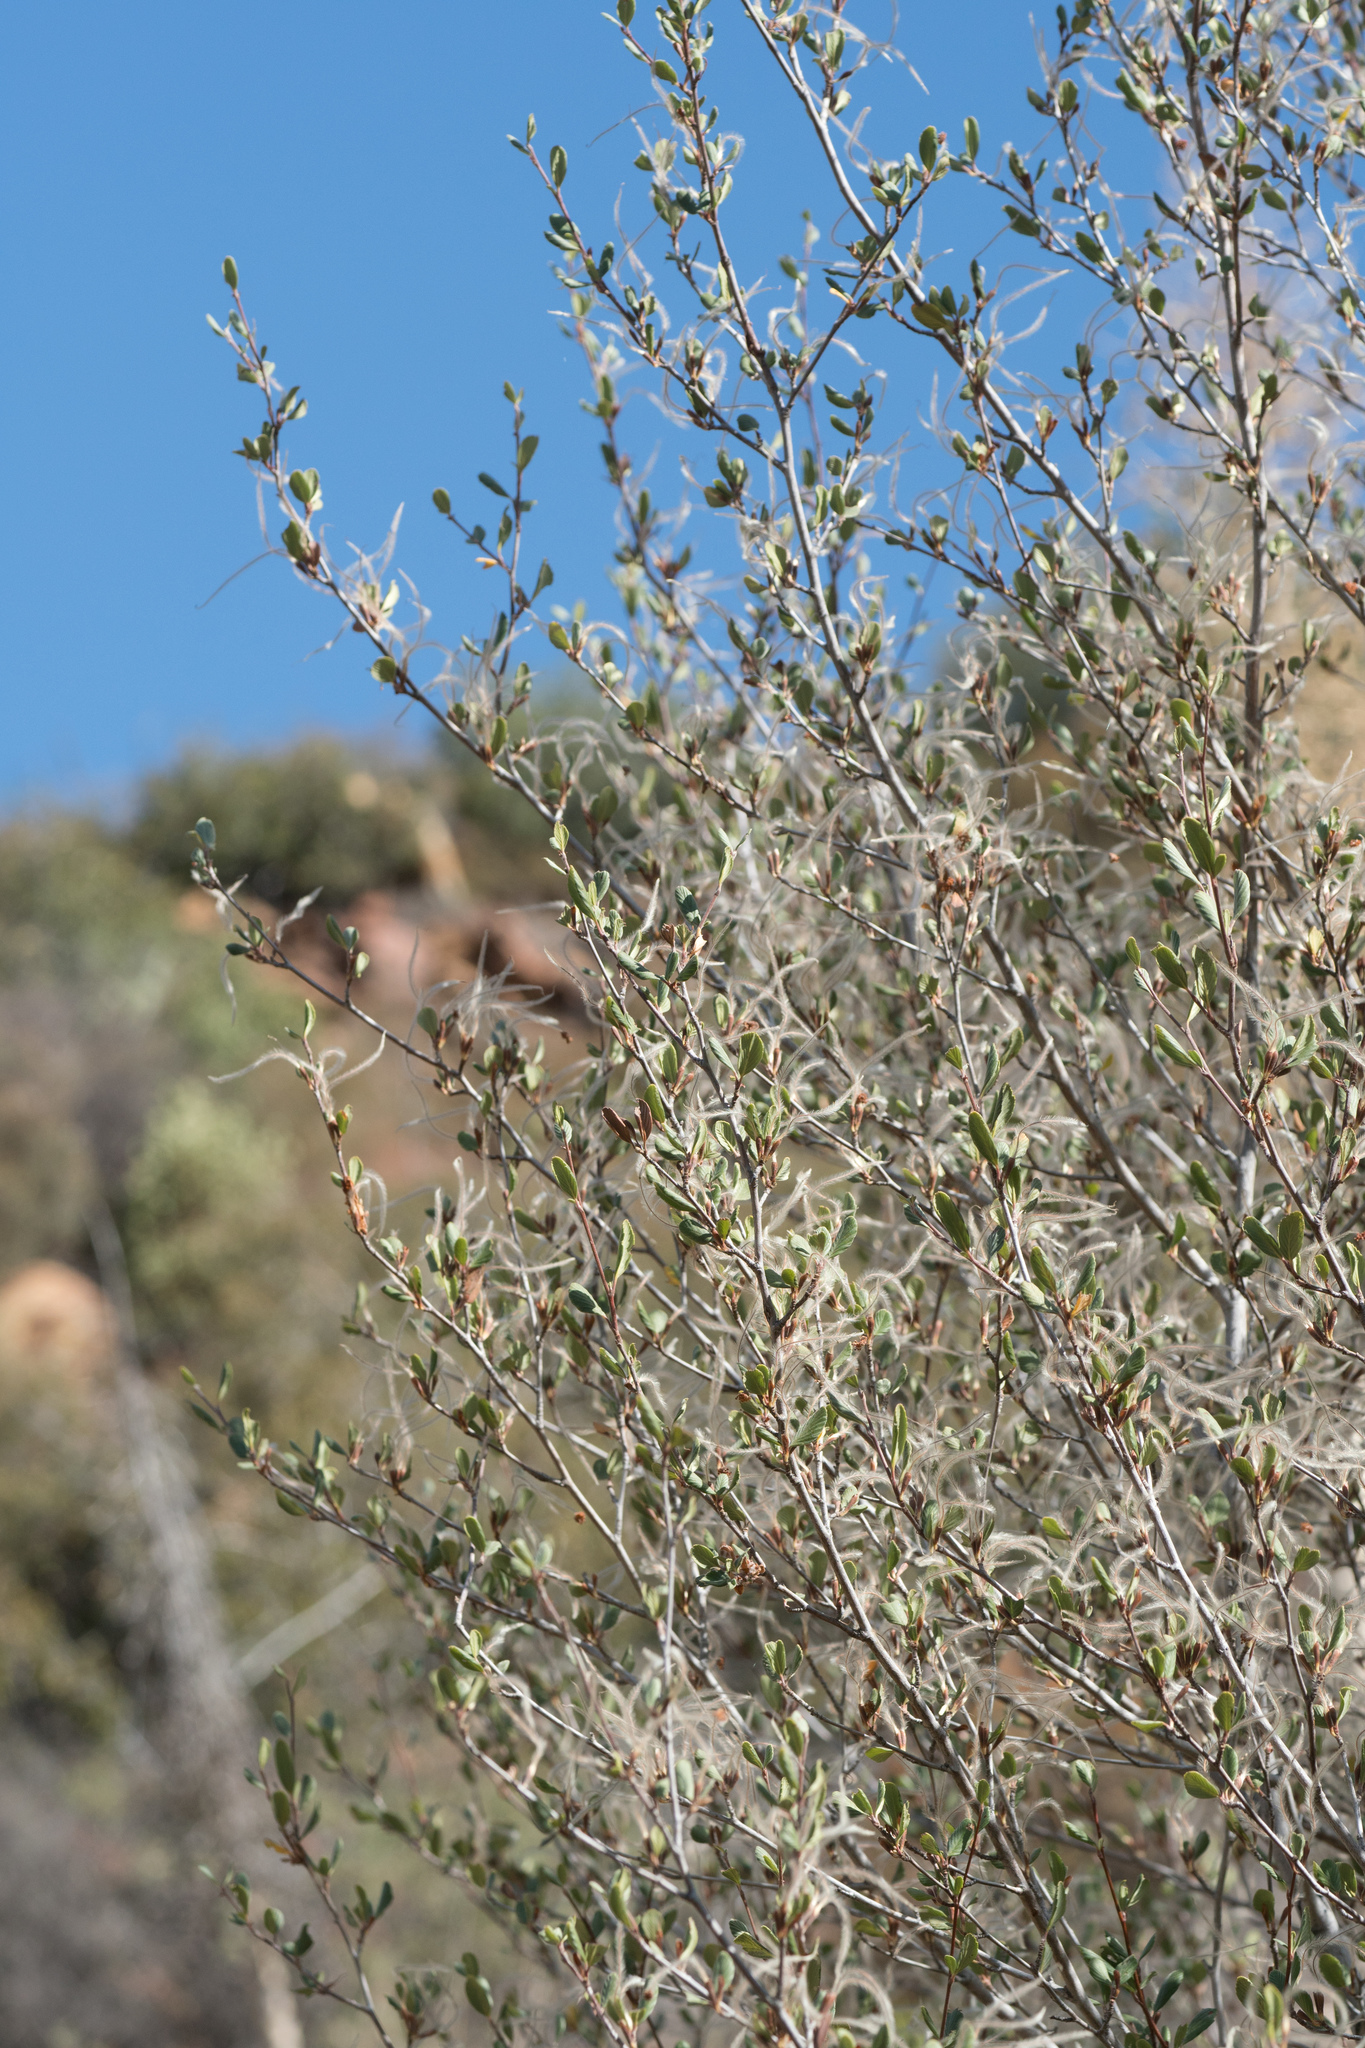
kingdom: Plantae
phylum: Tracheophyta
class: Magnoliopsida
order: Rosales
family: Rosaceae
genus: Cercocarpus
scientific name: Cercocarpus betuloides
